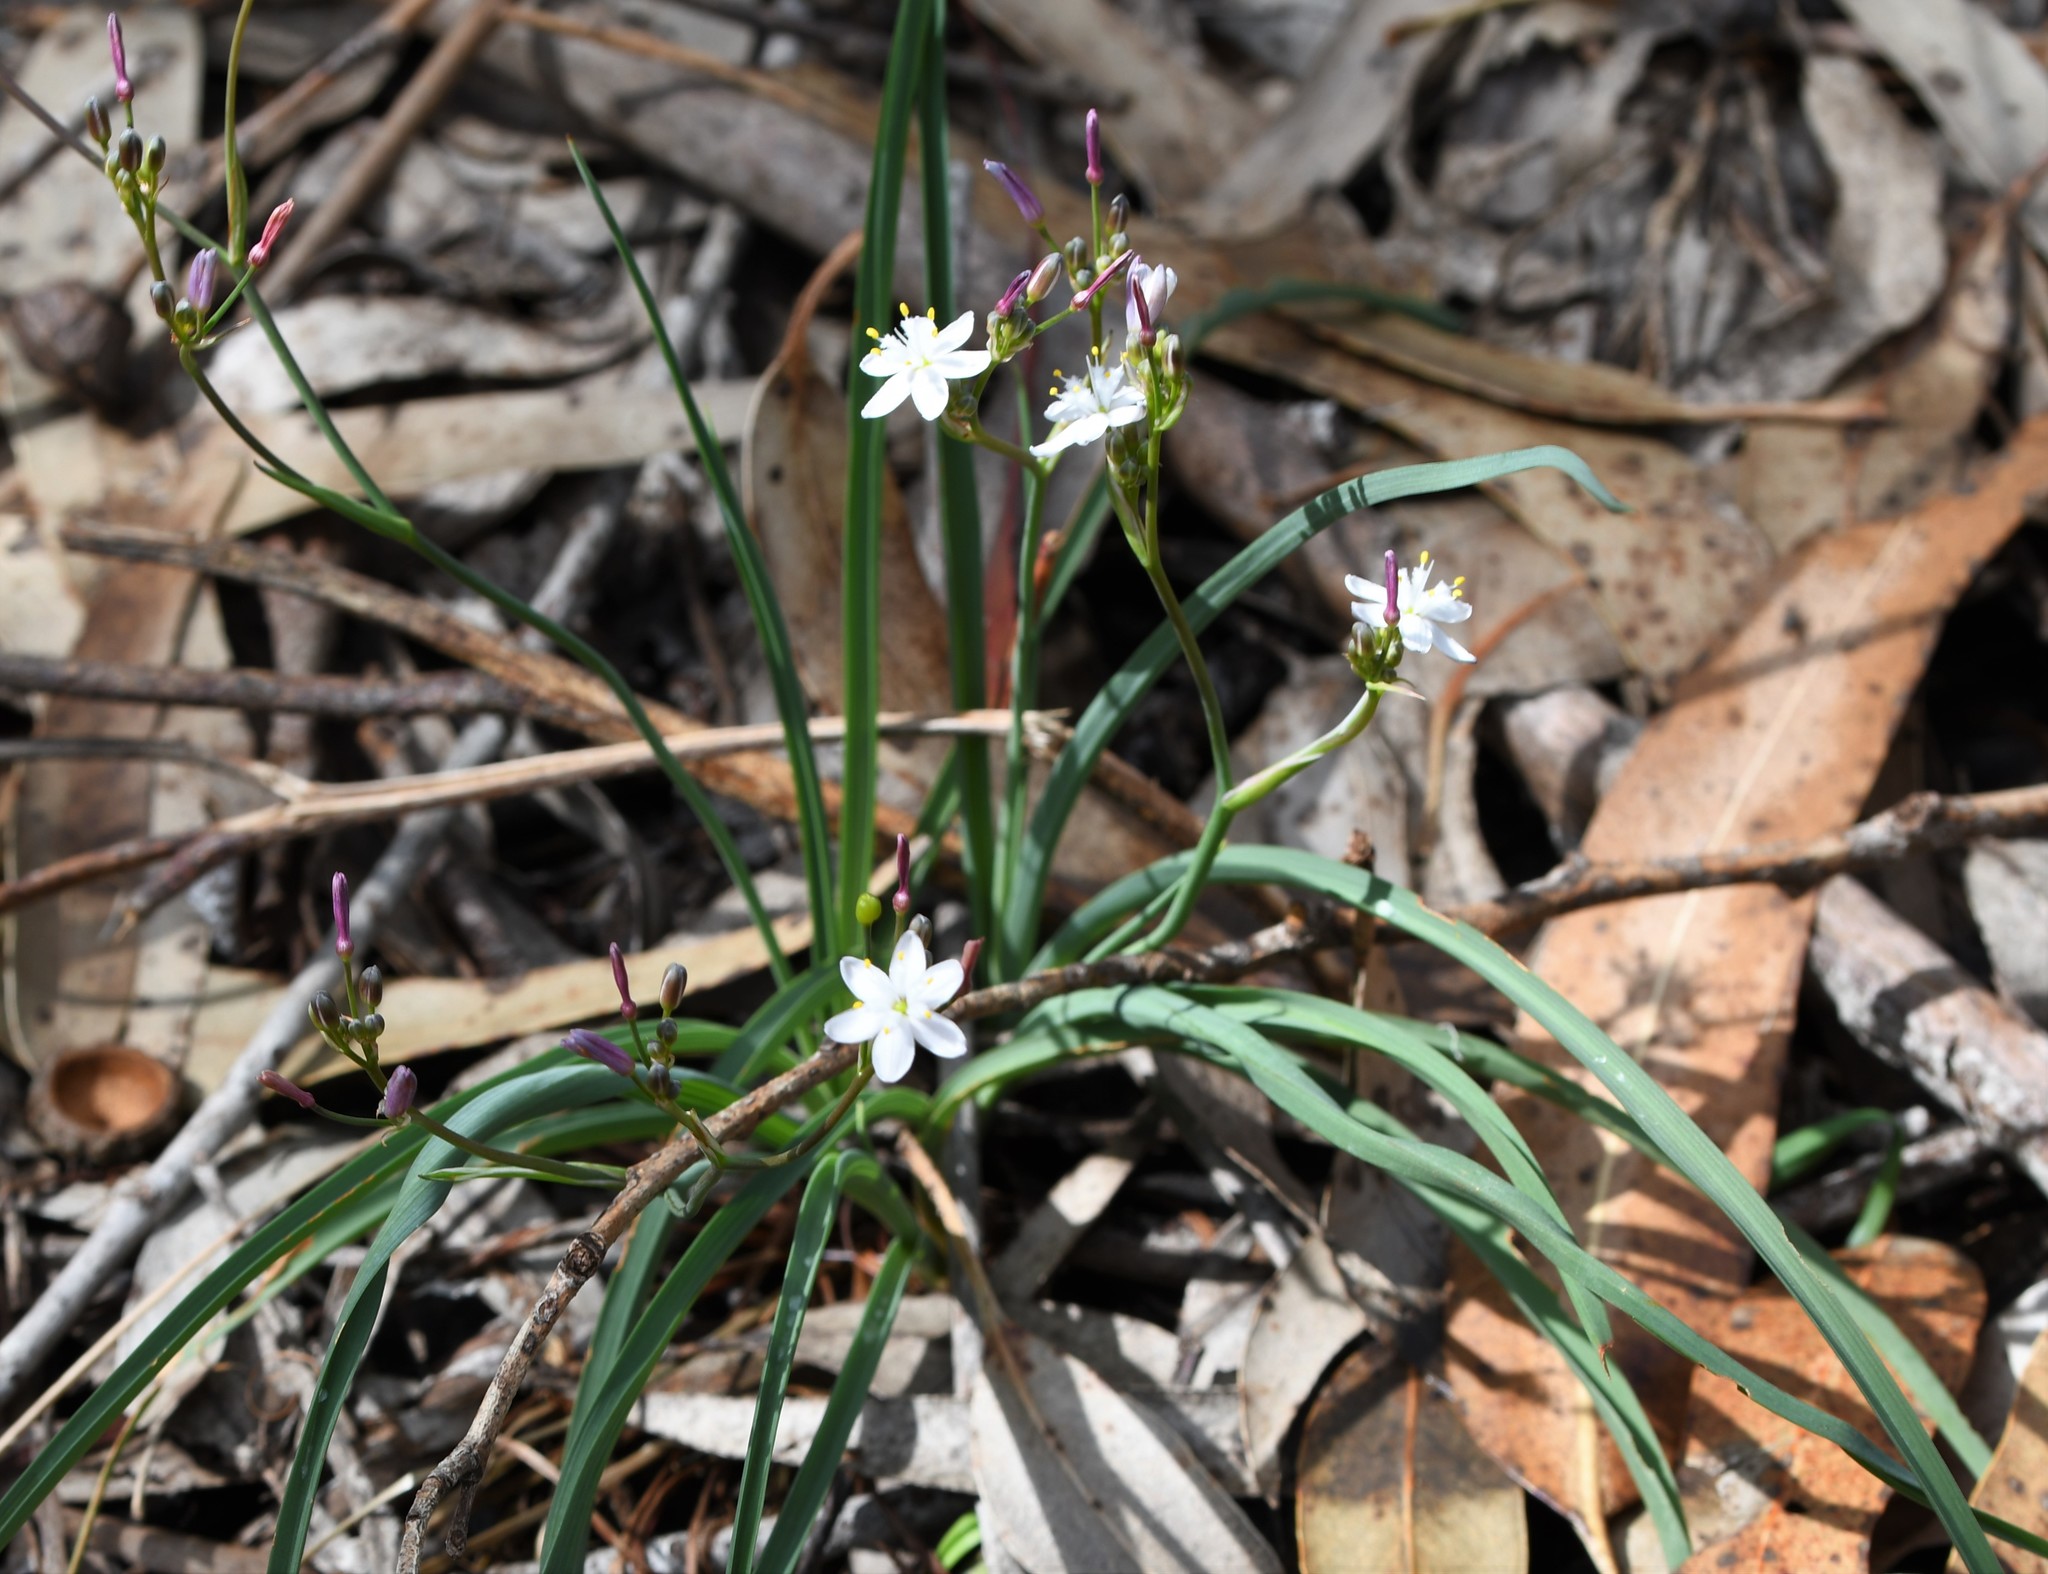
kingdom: Plantae
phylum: Tracheophyta
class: Liliopsida
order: Asparagales
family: Asphodelaceae
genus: Simethis
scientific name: Simethis mattiazzii
